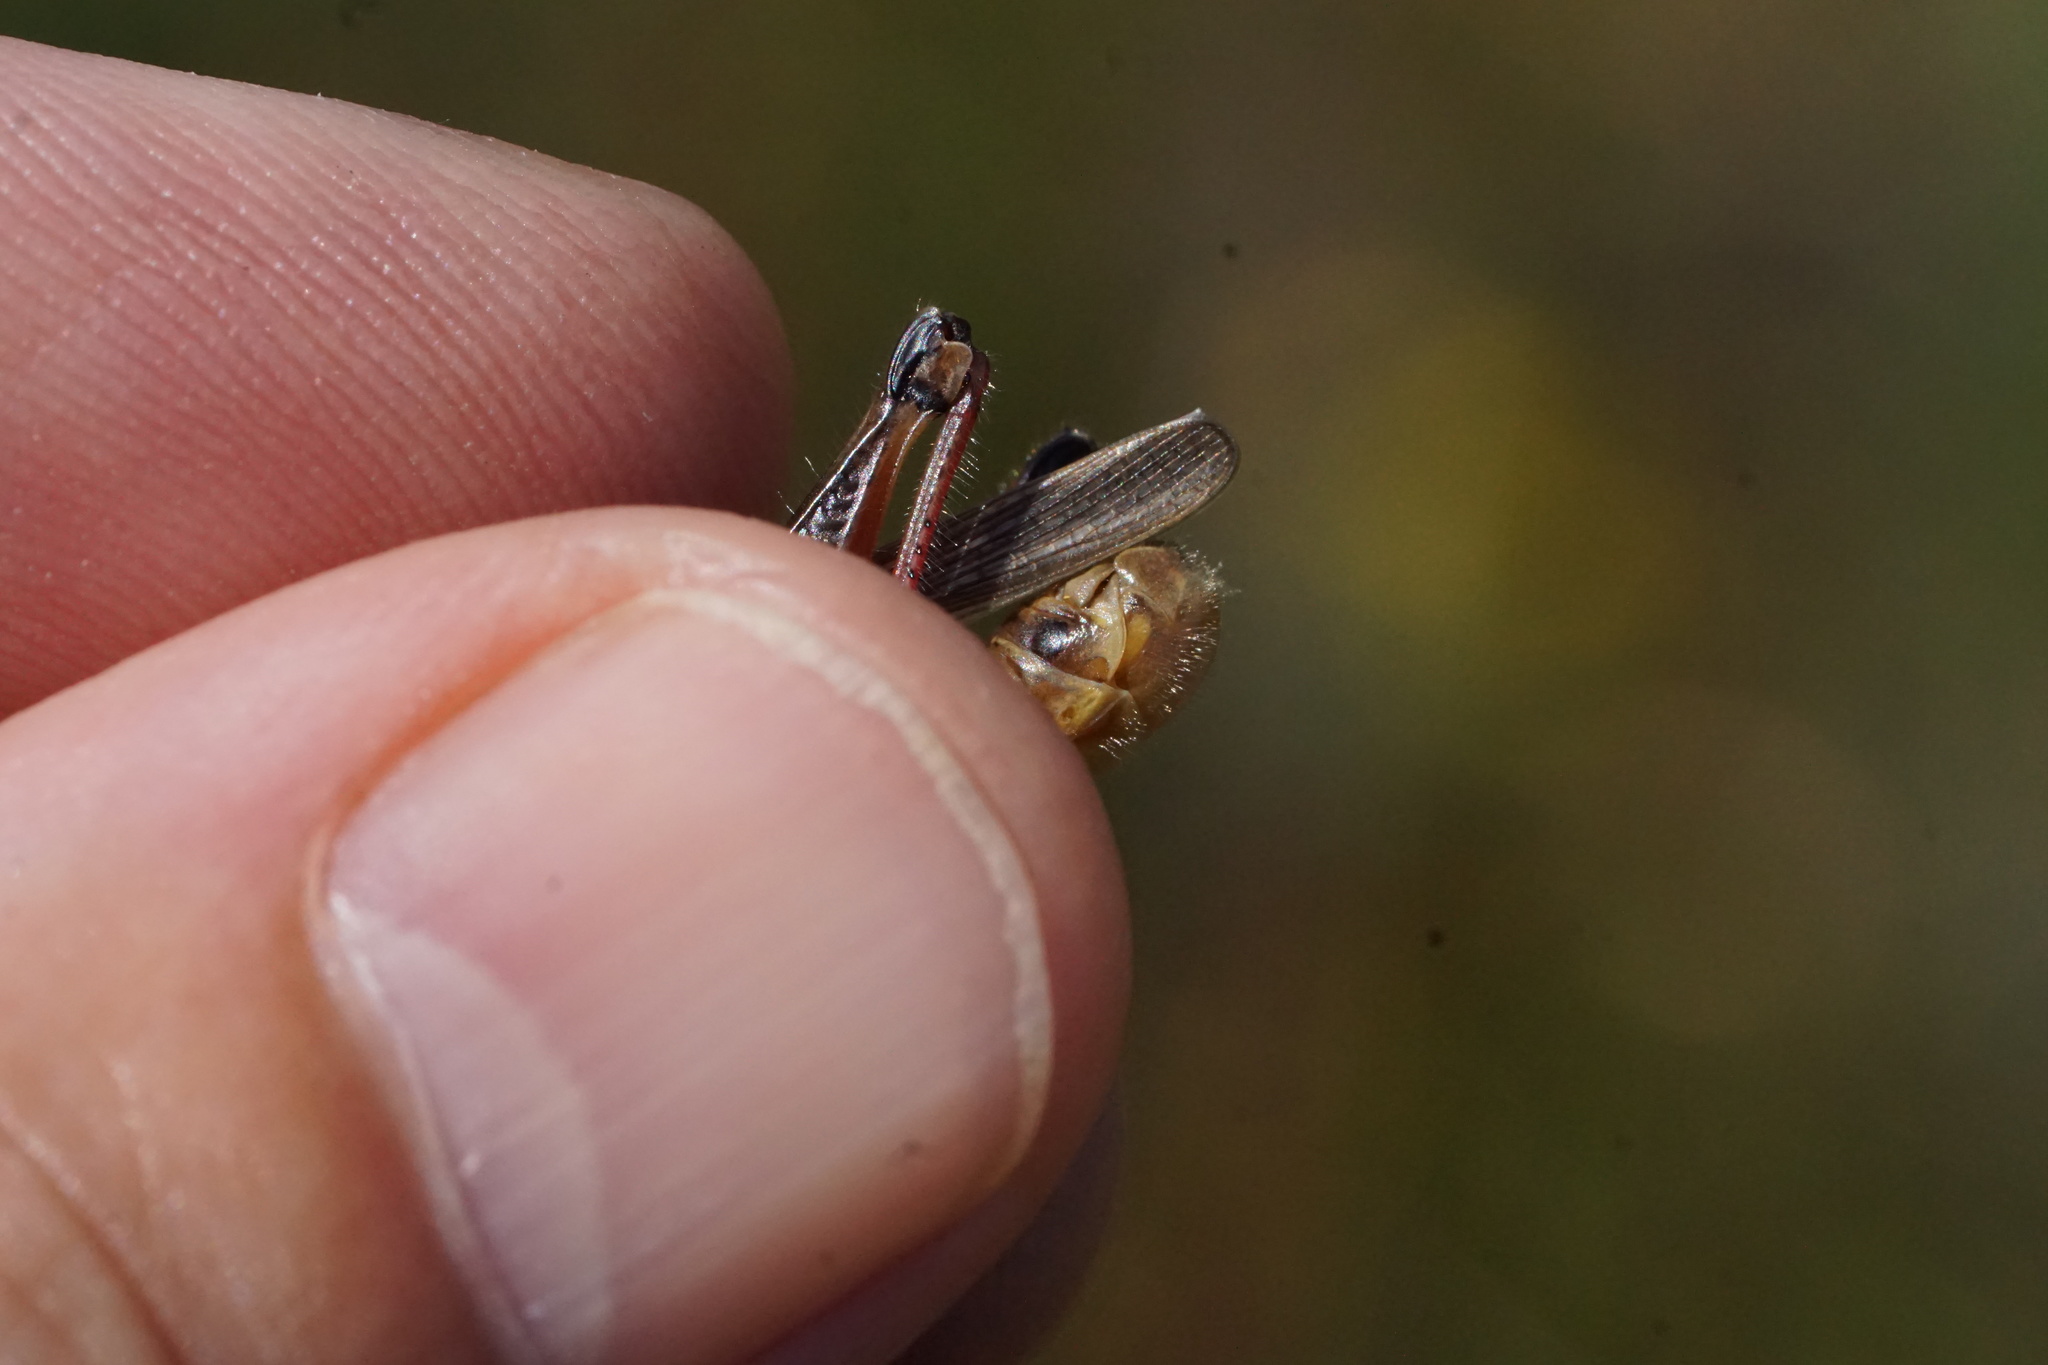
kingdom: Animalia
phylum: Arthropoda
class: Insecta
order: Orthoptera
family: Acrididae
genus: Melanoplus
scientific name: Melanoplus femurrubrum
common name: Red-legged grasshopper
